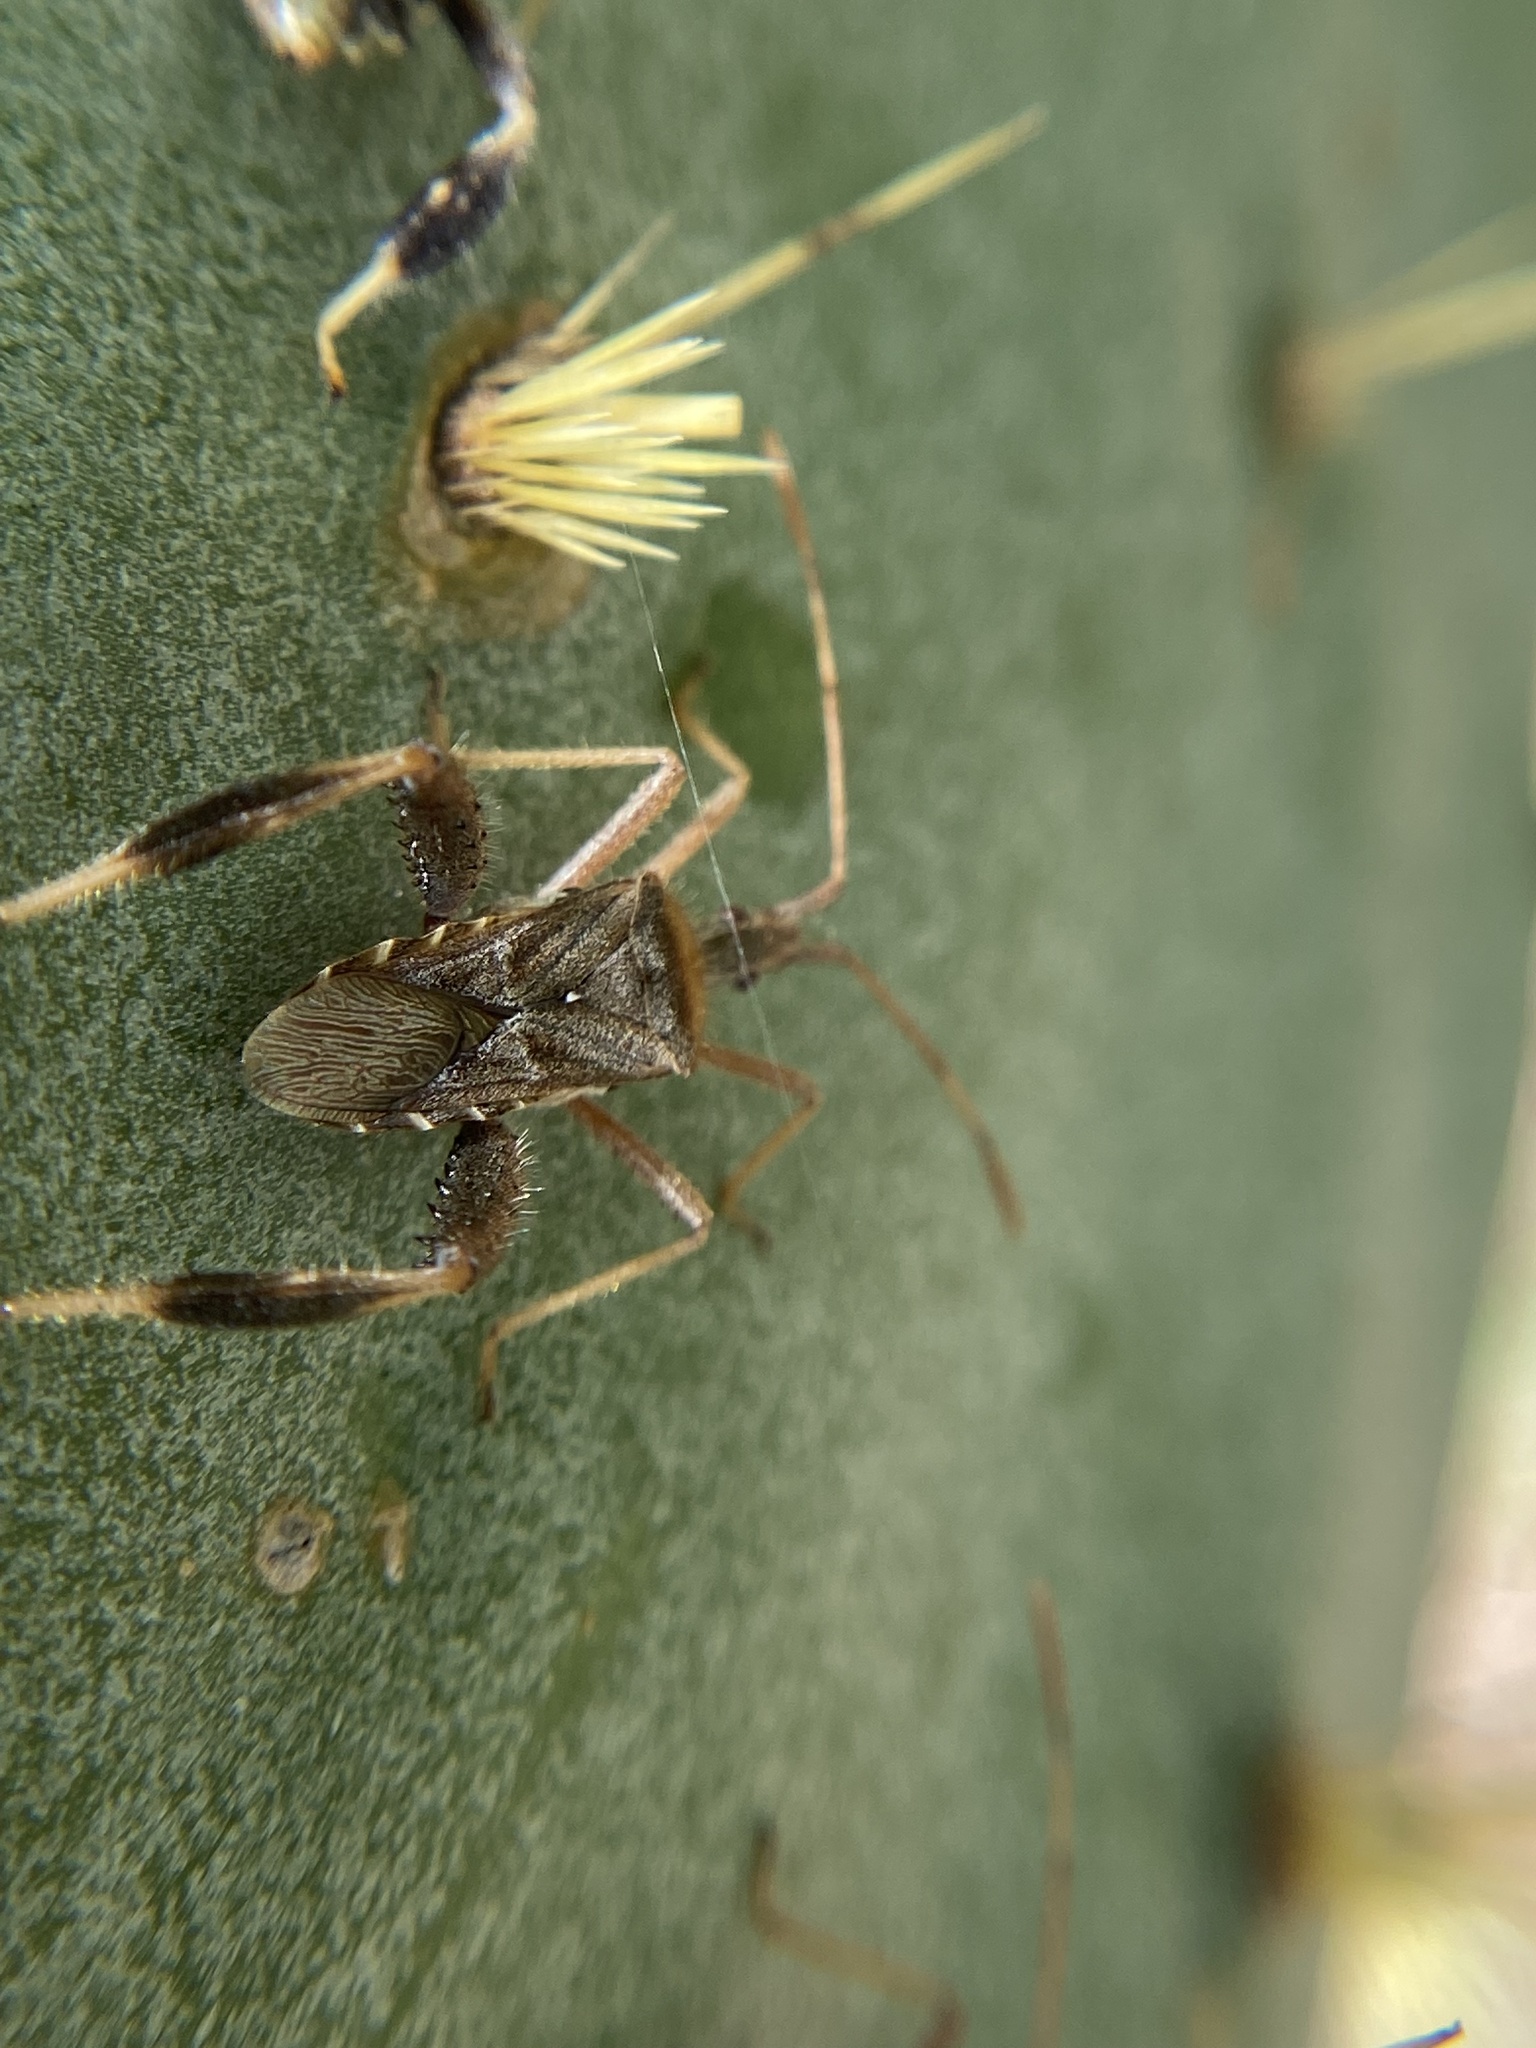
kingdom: Animalia
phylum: Arthropoda
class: Insecta
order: Hemiptera
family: Coreidae
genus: Narnia
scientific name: Narnia femorata
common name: Leaf-footed cactus bug
